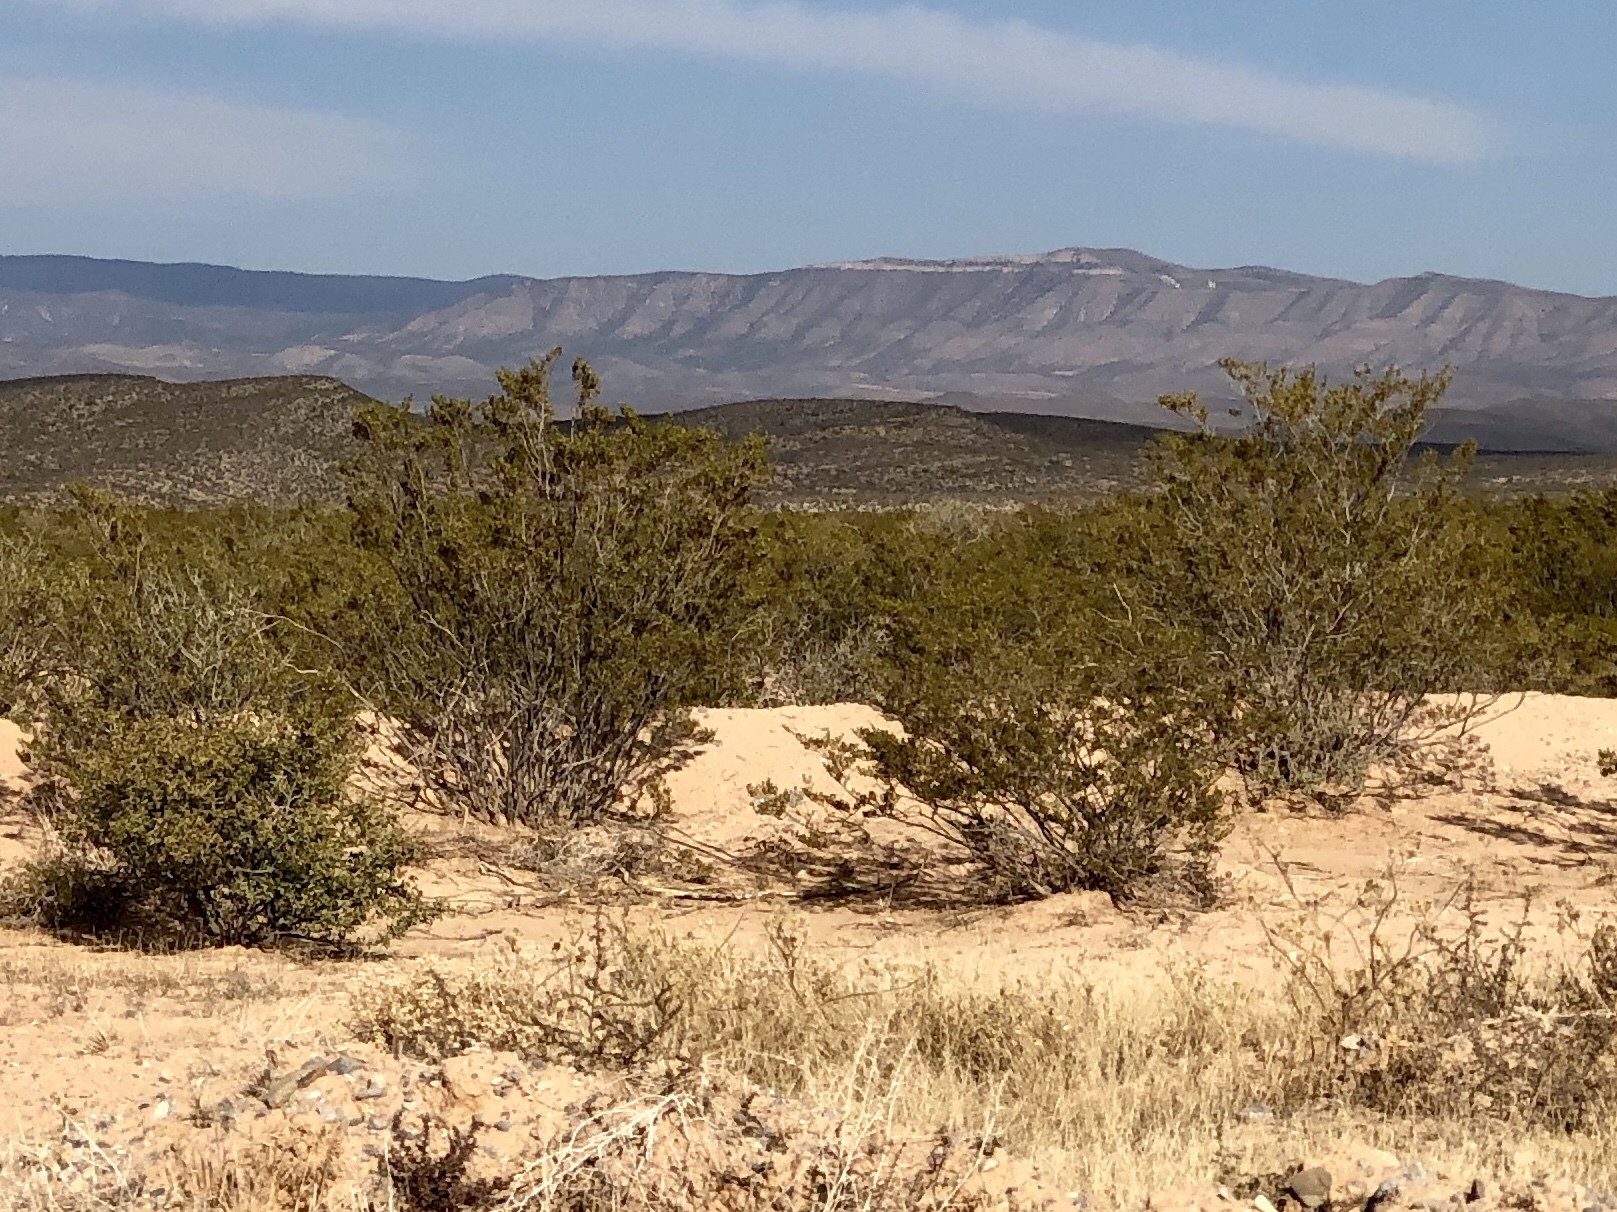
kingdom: Plantae
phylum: Tracheophyta
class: Magnoliopsida
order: Zygophyllales
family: Zygophyllaceae
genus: Larrea
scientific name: Larrea tridentata
